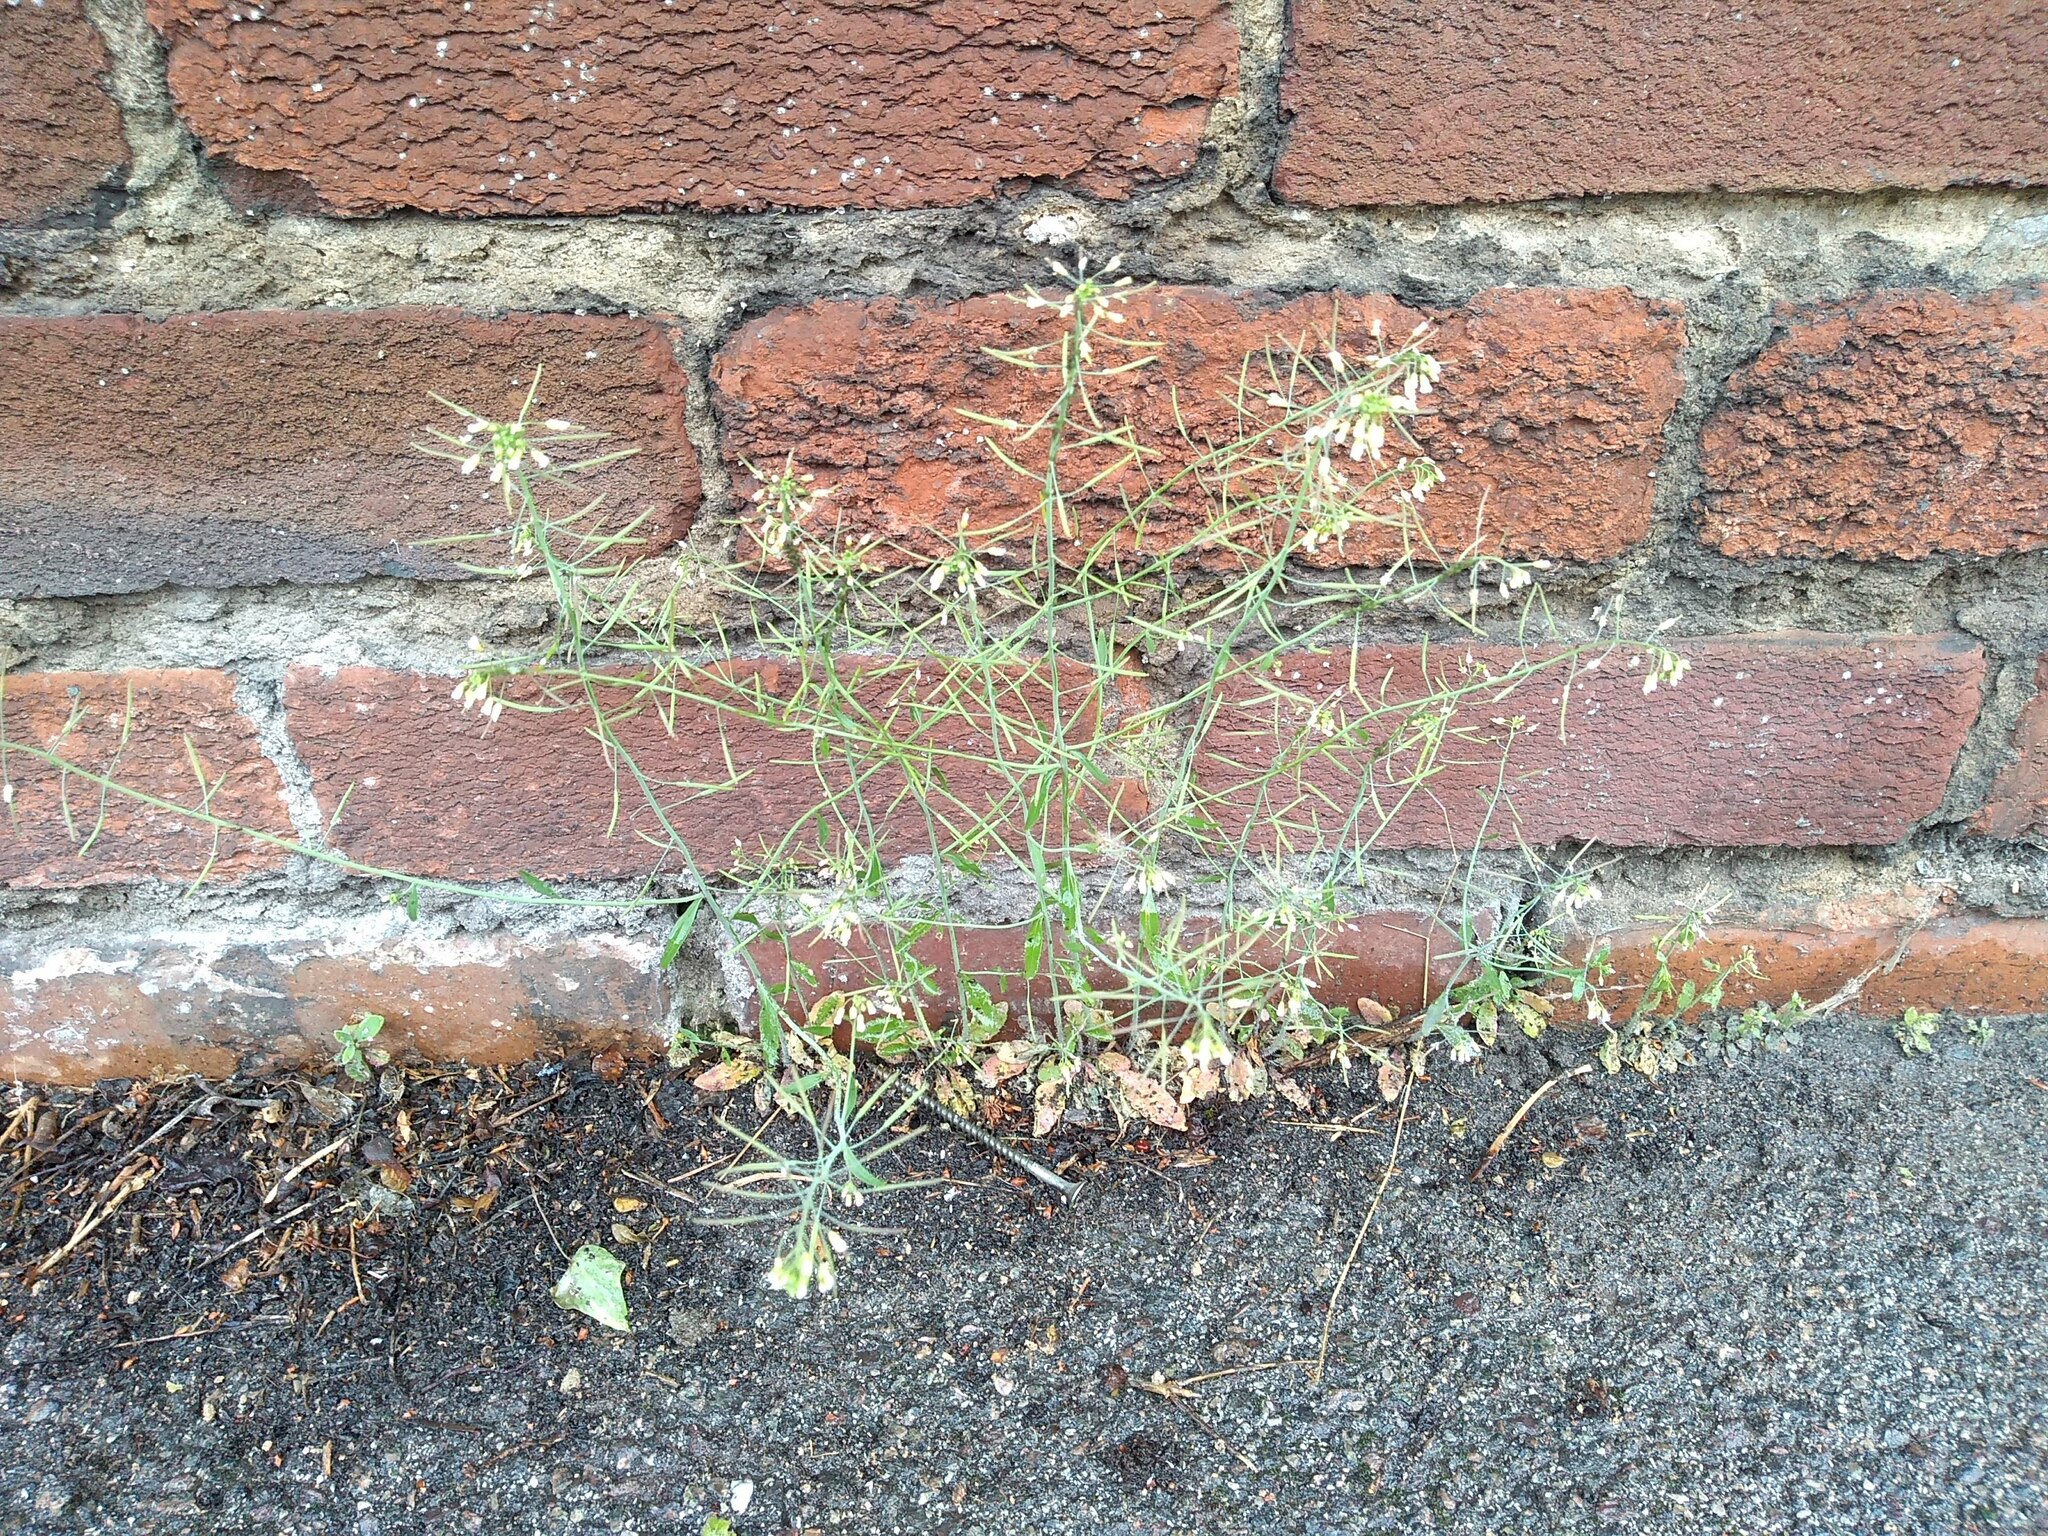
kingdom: Plantae
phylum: Tracheophyta
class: Magnoliopsida
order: Brassicales
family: Brassicaceae
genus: Arabidopsis
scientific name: Arabidopsis thaliana
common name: Thale cress
